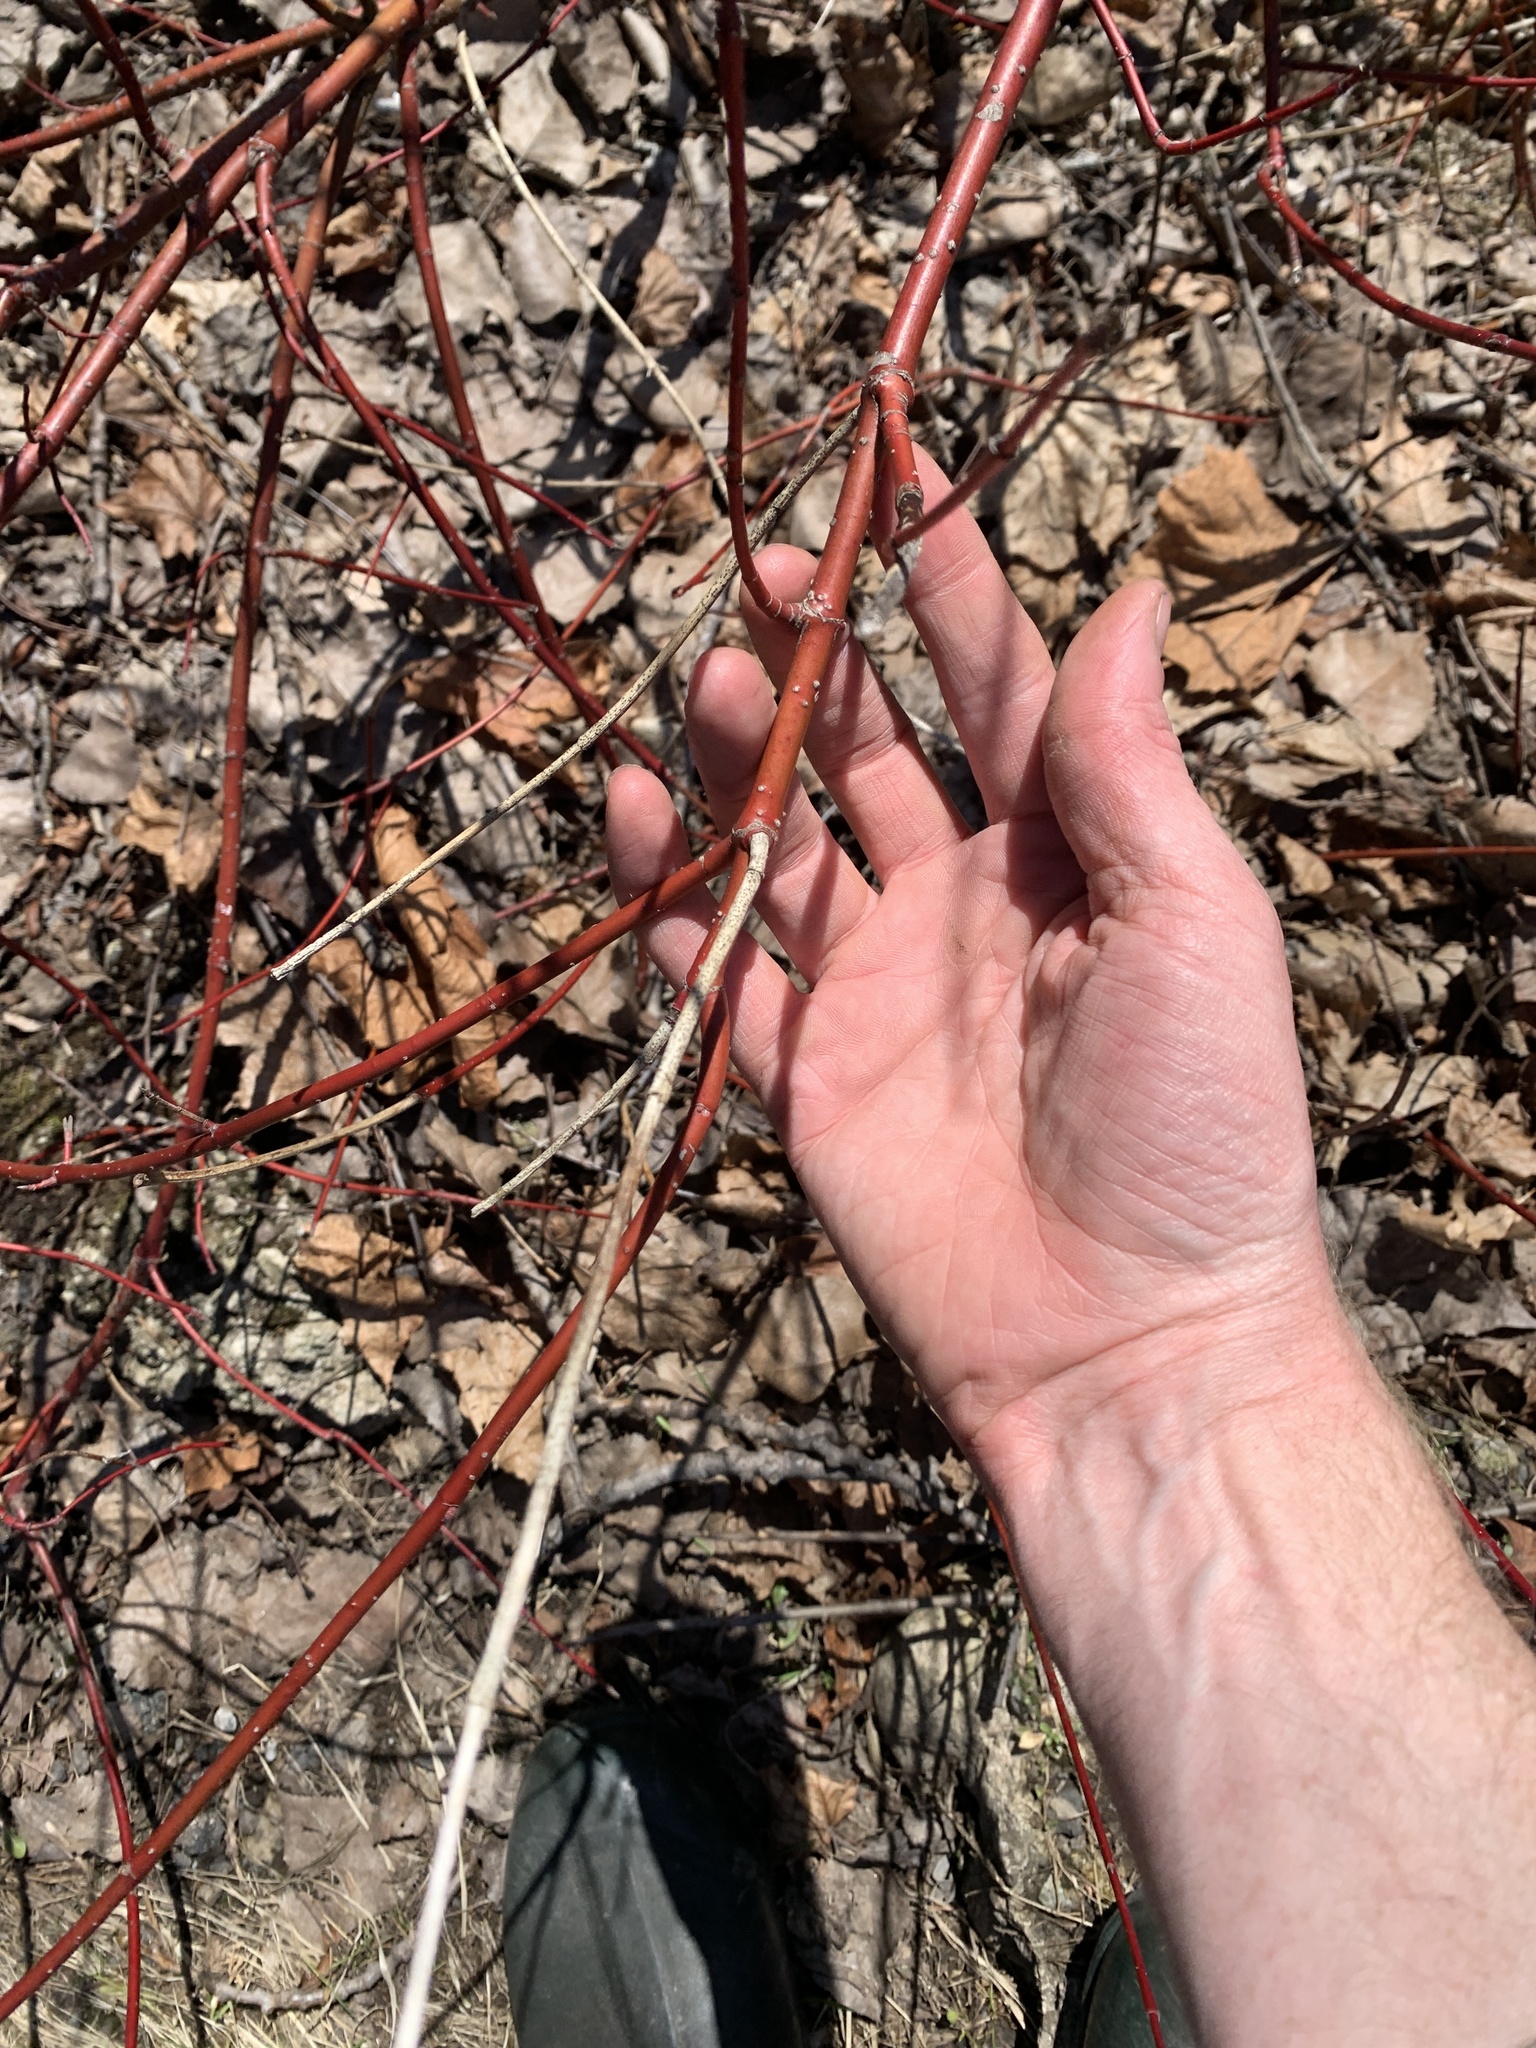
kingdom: Plantae
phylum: Tracheophyta
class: Magnoliopsida
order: Cornales
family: Cornaceae
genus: Cornus
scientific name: Cornus sericea
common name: Red-osier dogwood
